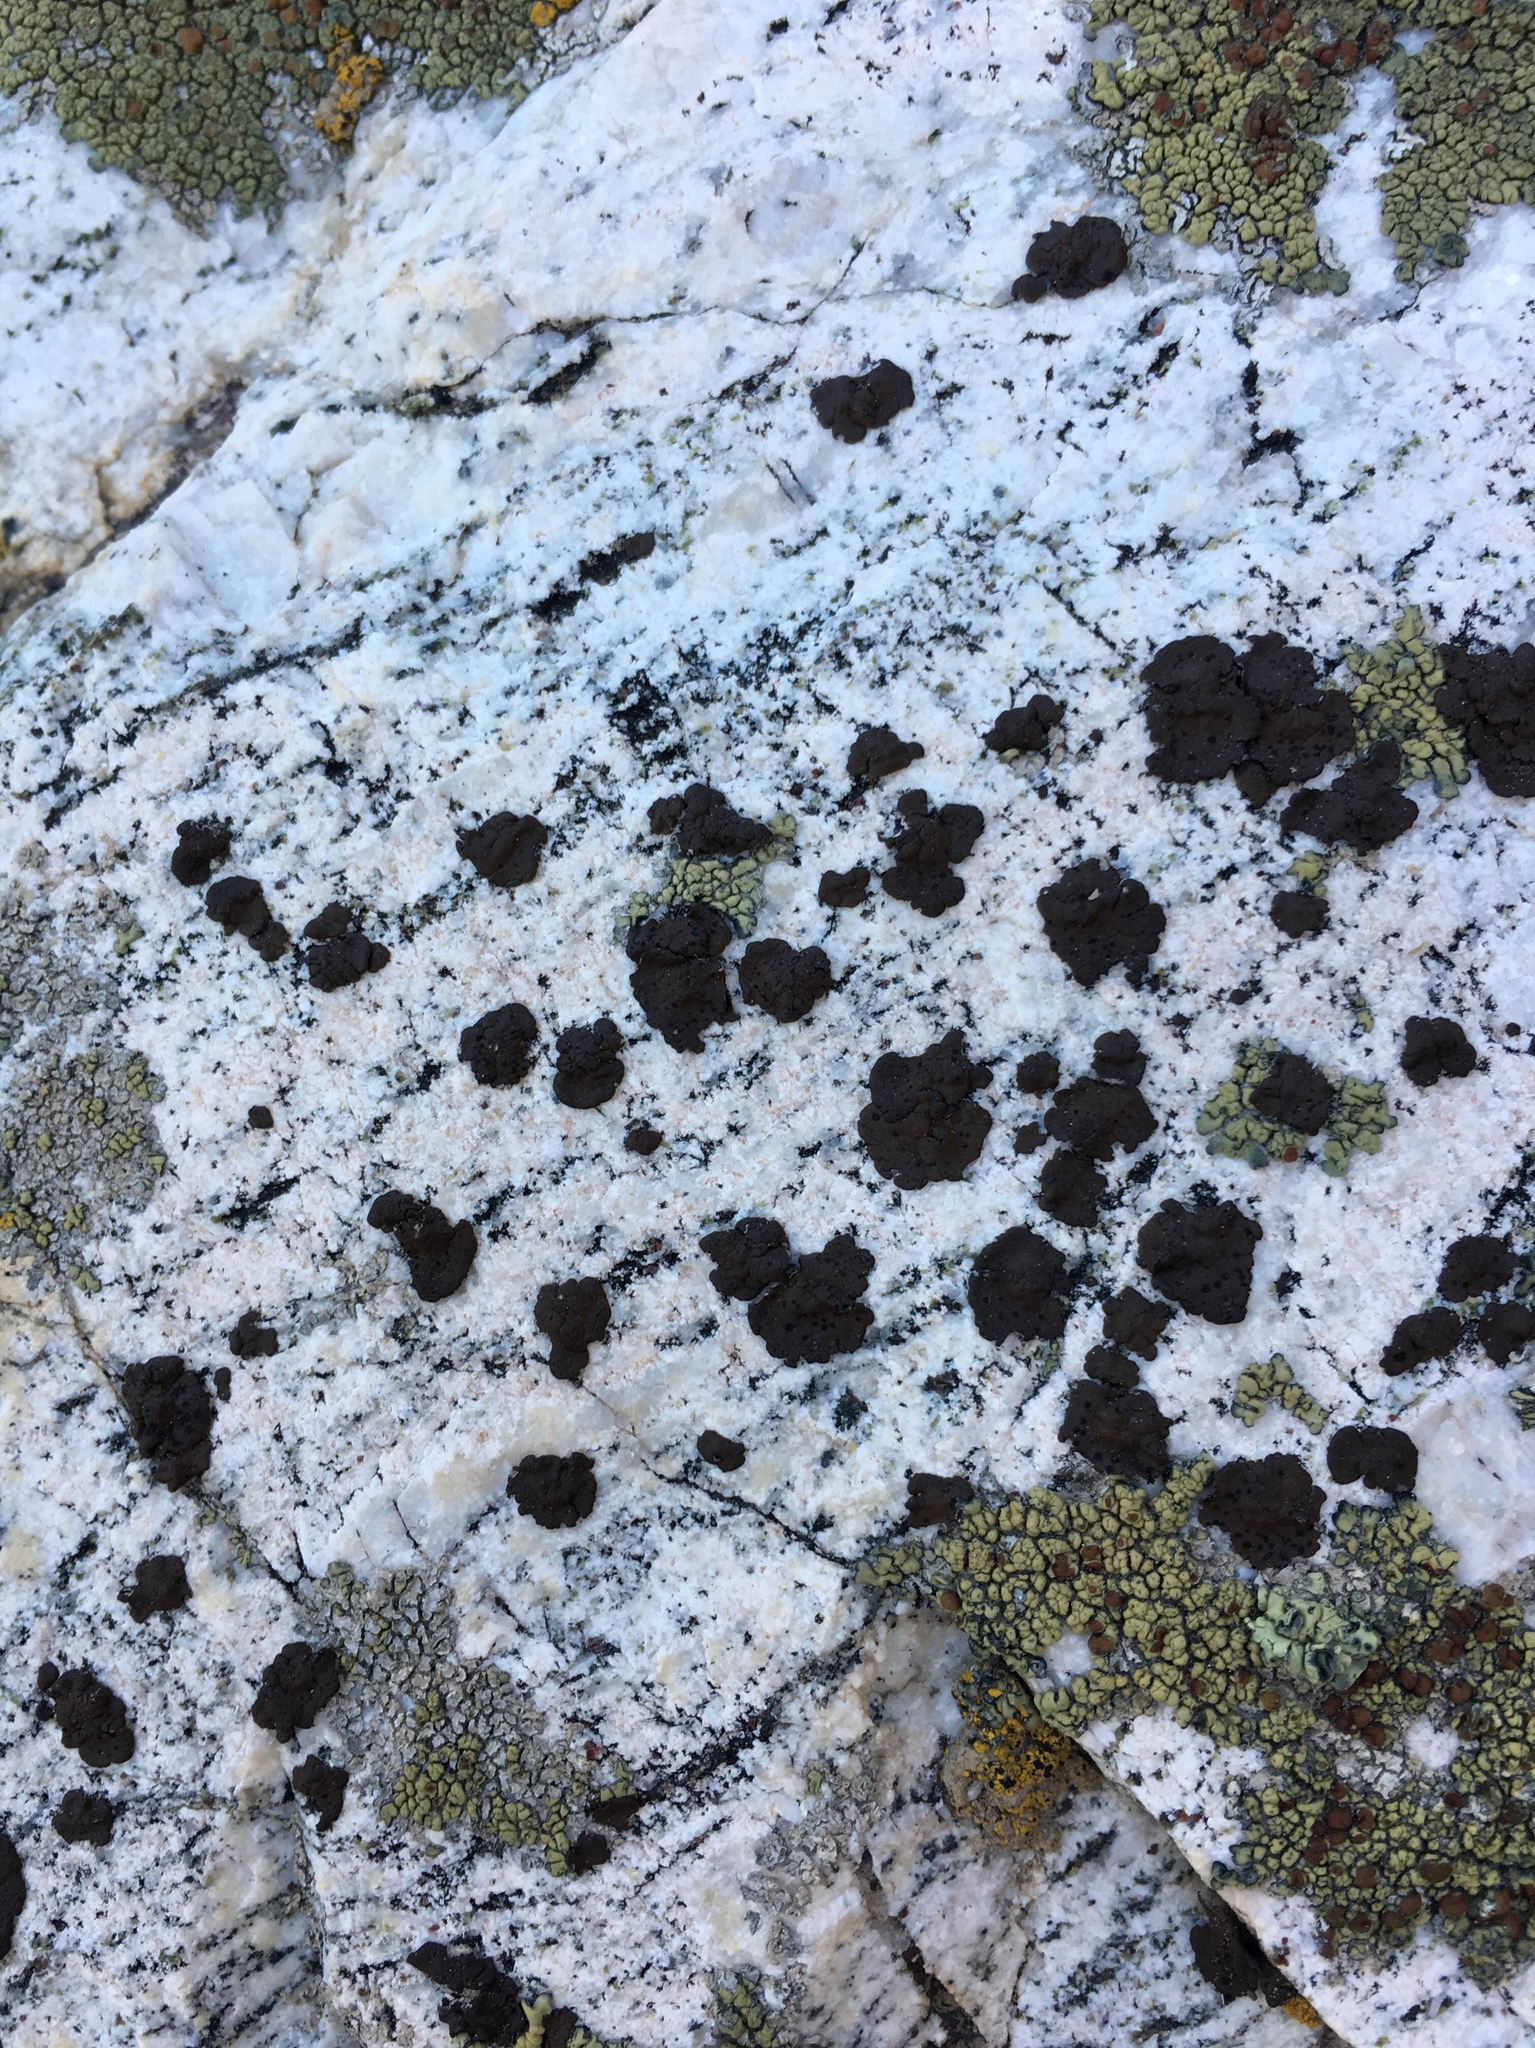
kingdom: Fungi
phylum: Ascomycota
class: Lecanoromycetes
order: Umbilicariales
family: Umbilicariaceae
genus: Umbilicaria
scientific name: Umbilicaria phaea
